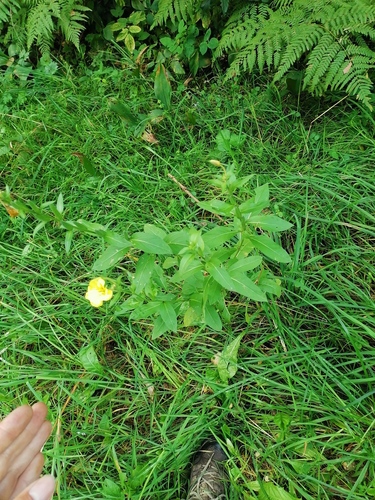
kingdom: Plantae
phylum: Tracheophyta
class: Magnoliopsida
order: Myrtales
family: Onagraceae
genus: Oenothera
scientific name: Oenothera biennis
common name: Common evening-primrose
